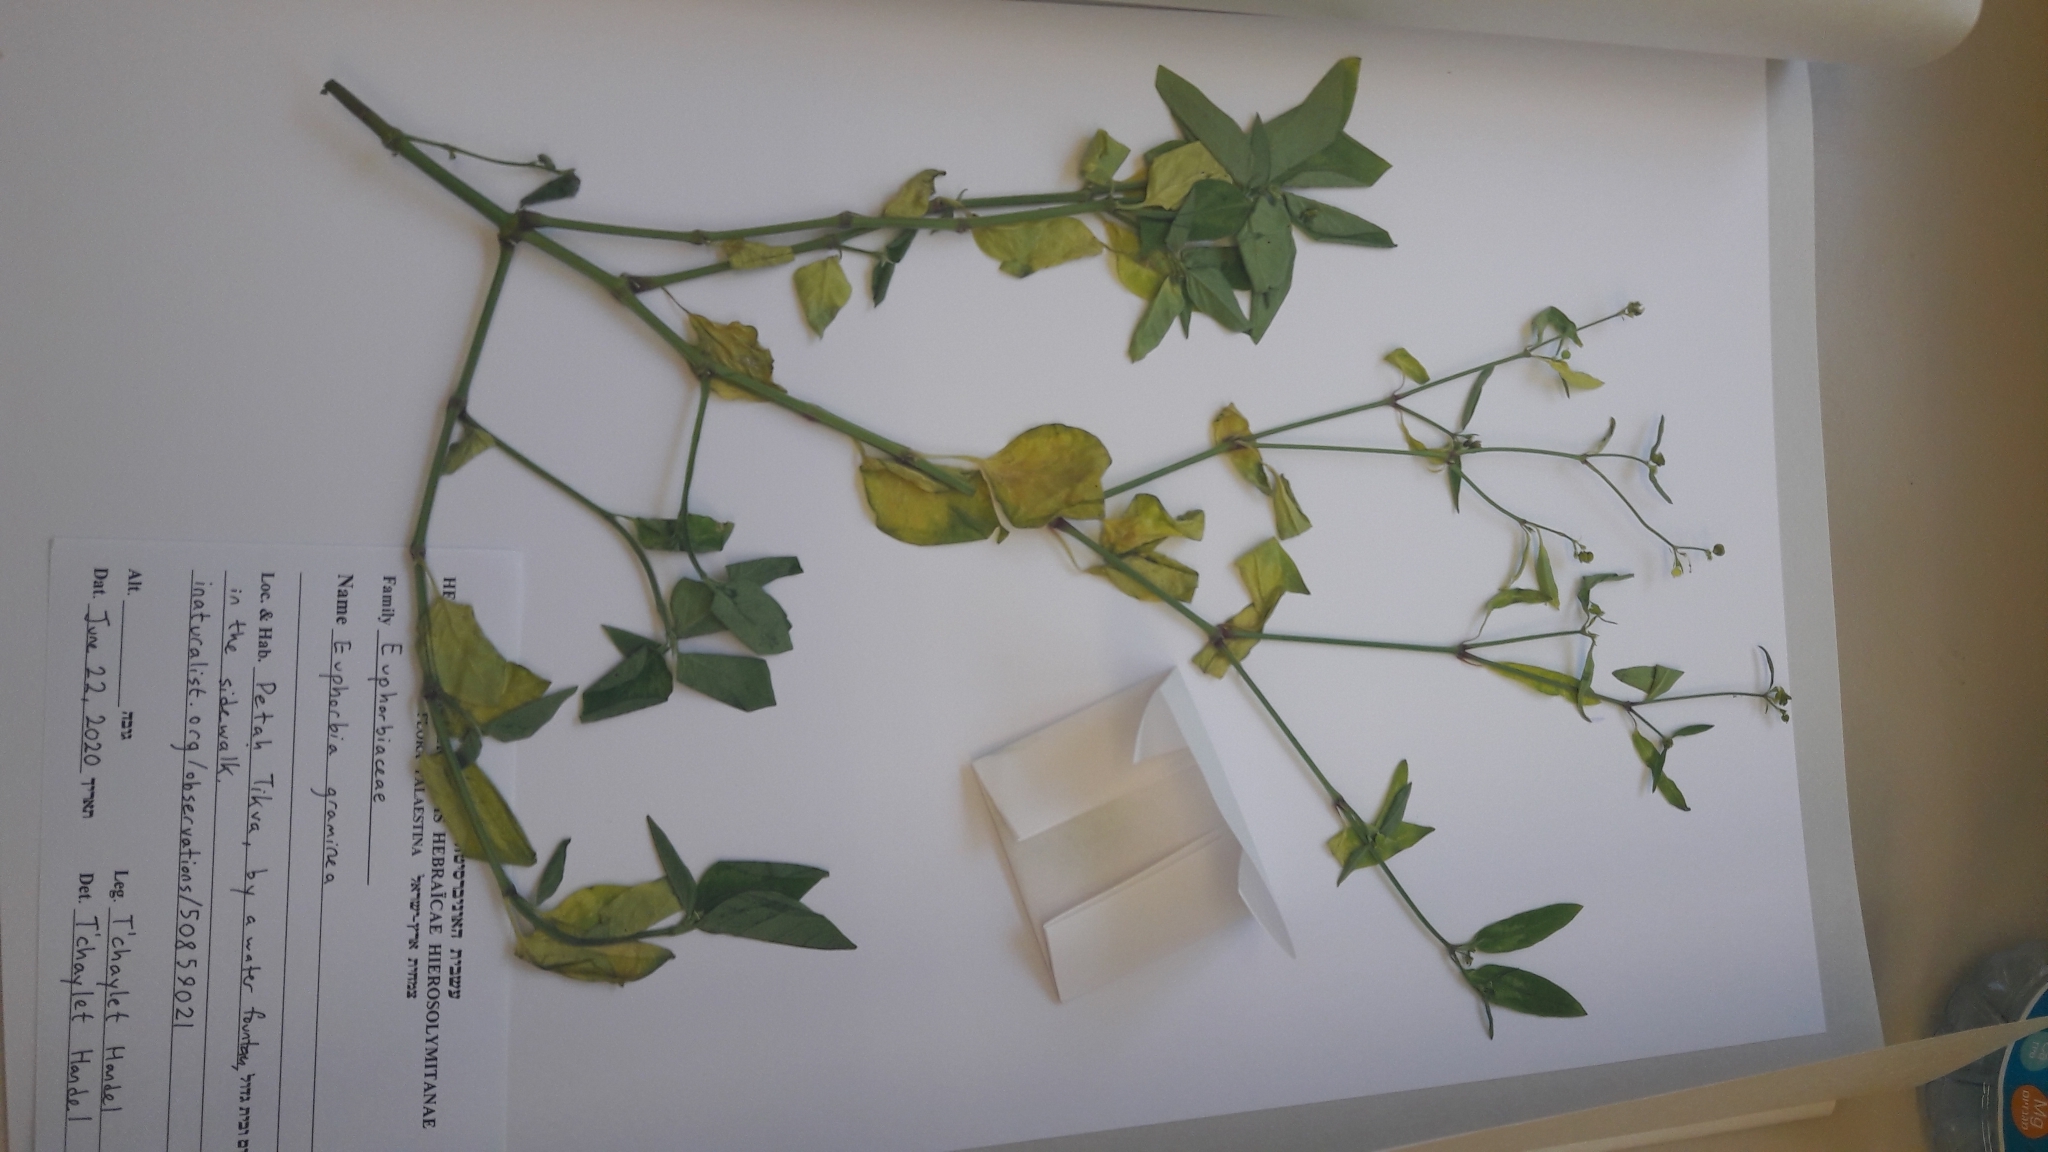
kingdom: Plantae
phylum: Tracheophyta
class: Magnoliopsida
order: Malpighiales
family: Euphorbiaceae
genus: Euphorbia
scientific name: Euphorbia graminea
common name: Grassleaf spurge
